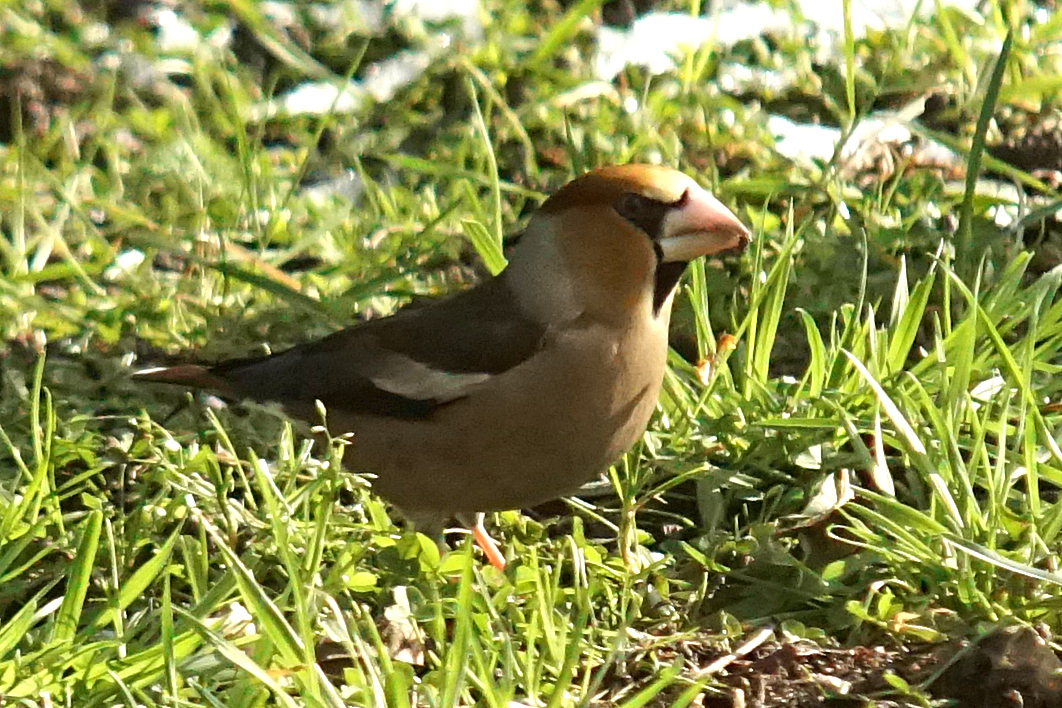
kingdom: Animalia
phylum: Chordata
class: Aves
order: Passeriformes
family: Fringillidae
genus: Coccothraustes
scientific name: Coccothraustes coccothraustes
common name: Hawfinch
